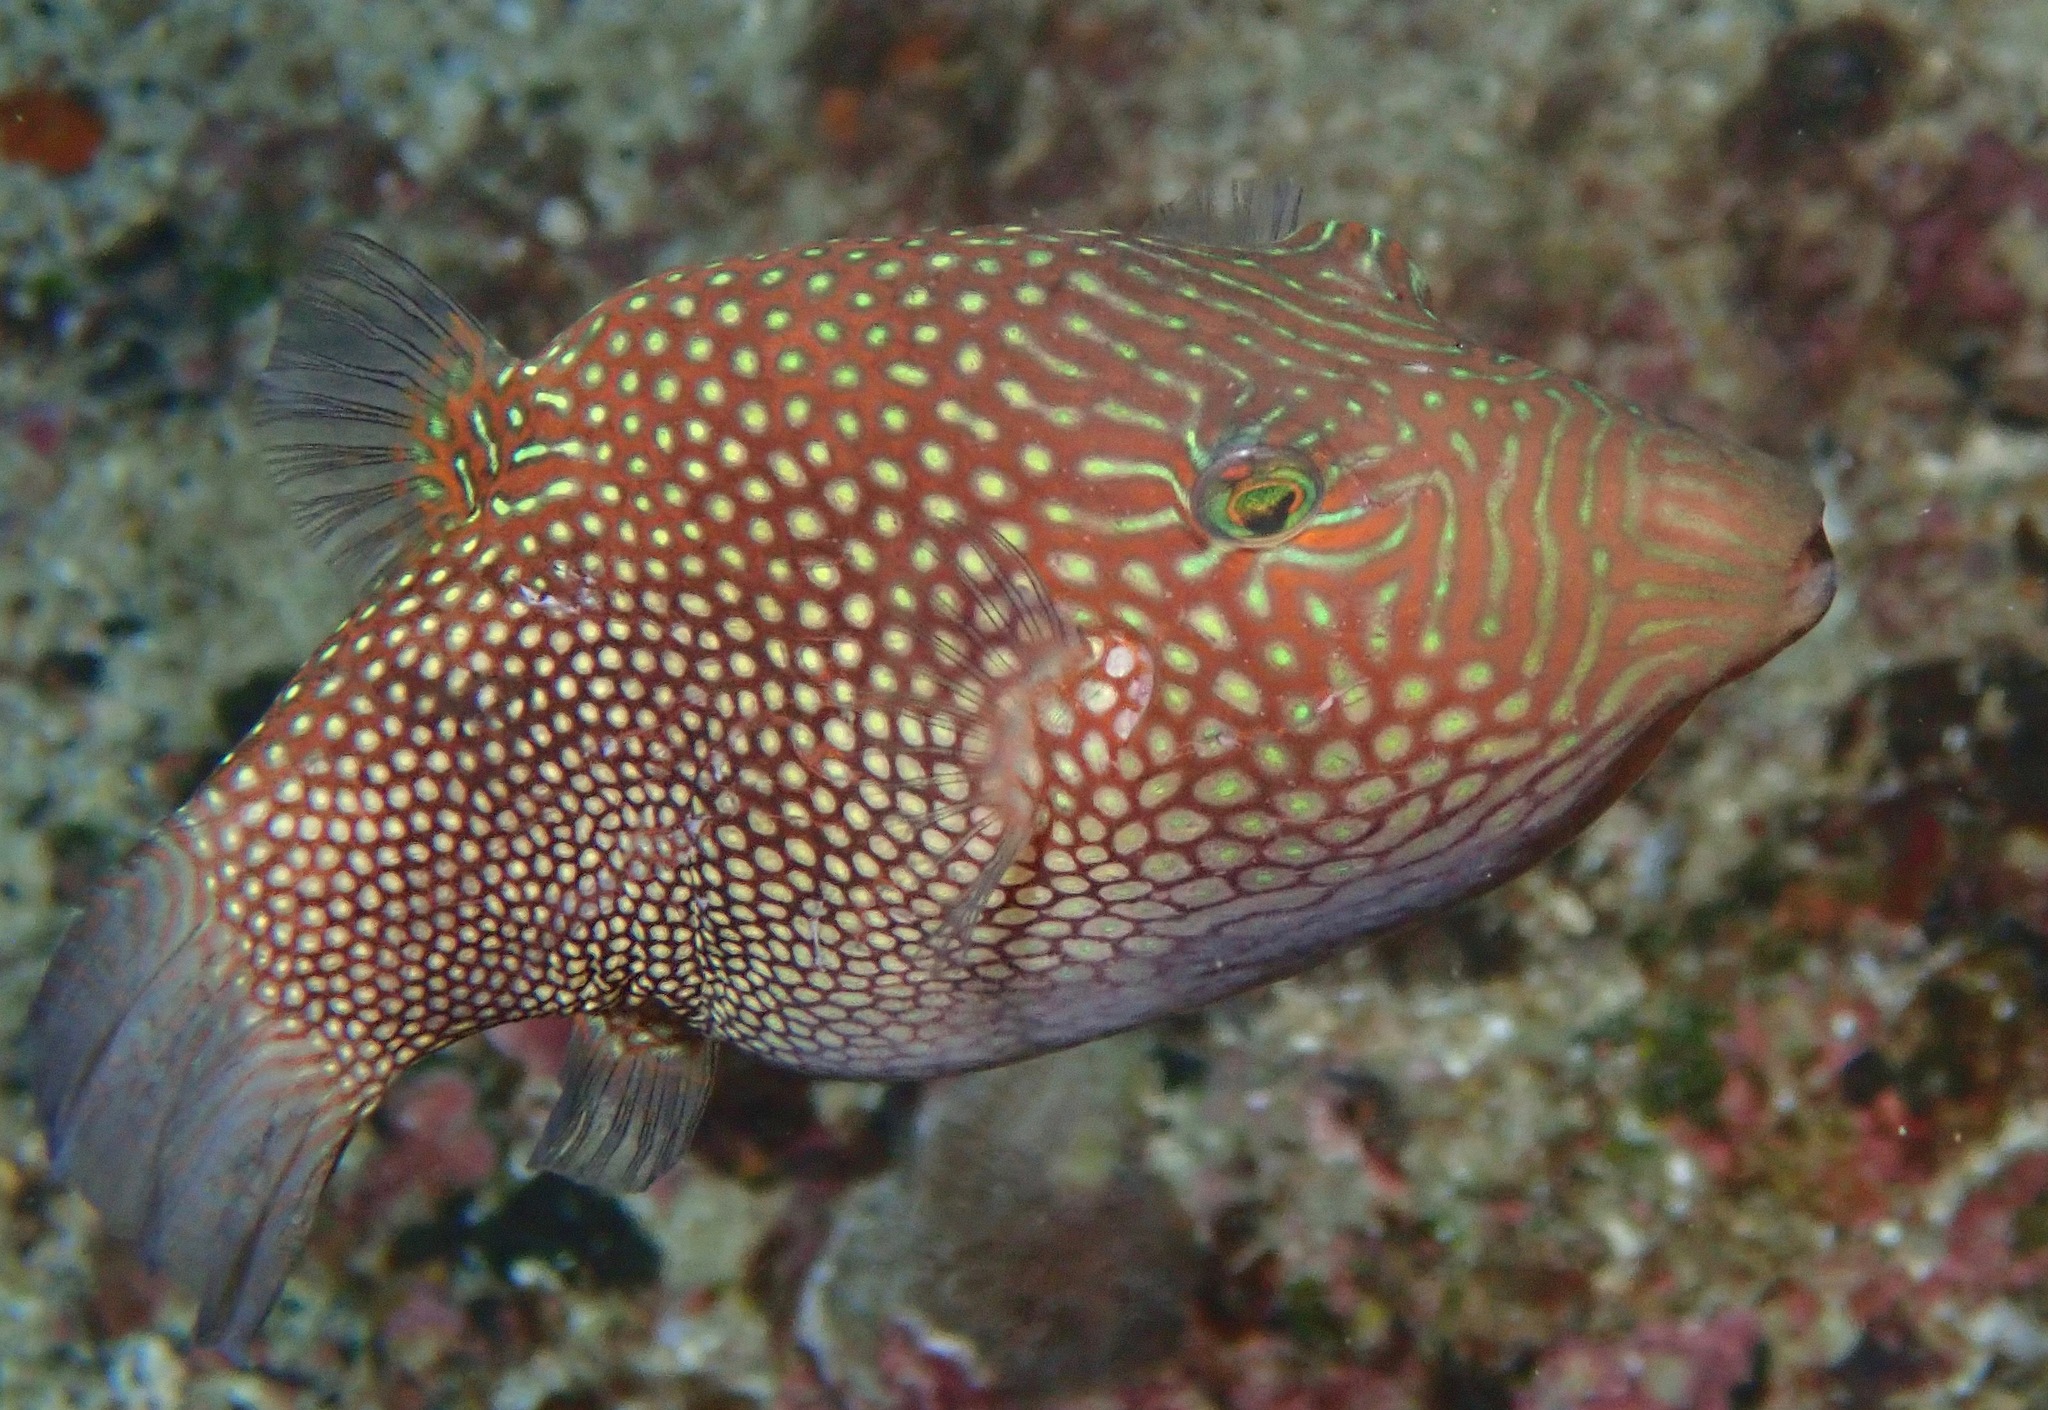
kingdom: Animalia
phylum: Chordata
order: Tetraodontiformes
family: Tetraodontidae
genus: Canthigaster
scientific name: Canthigaster janthinoptera
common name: Honeycomb toby
